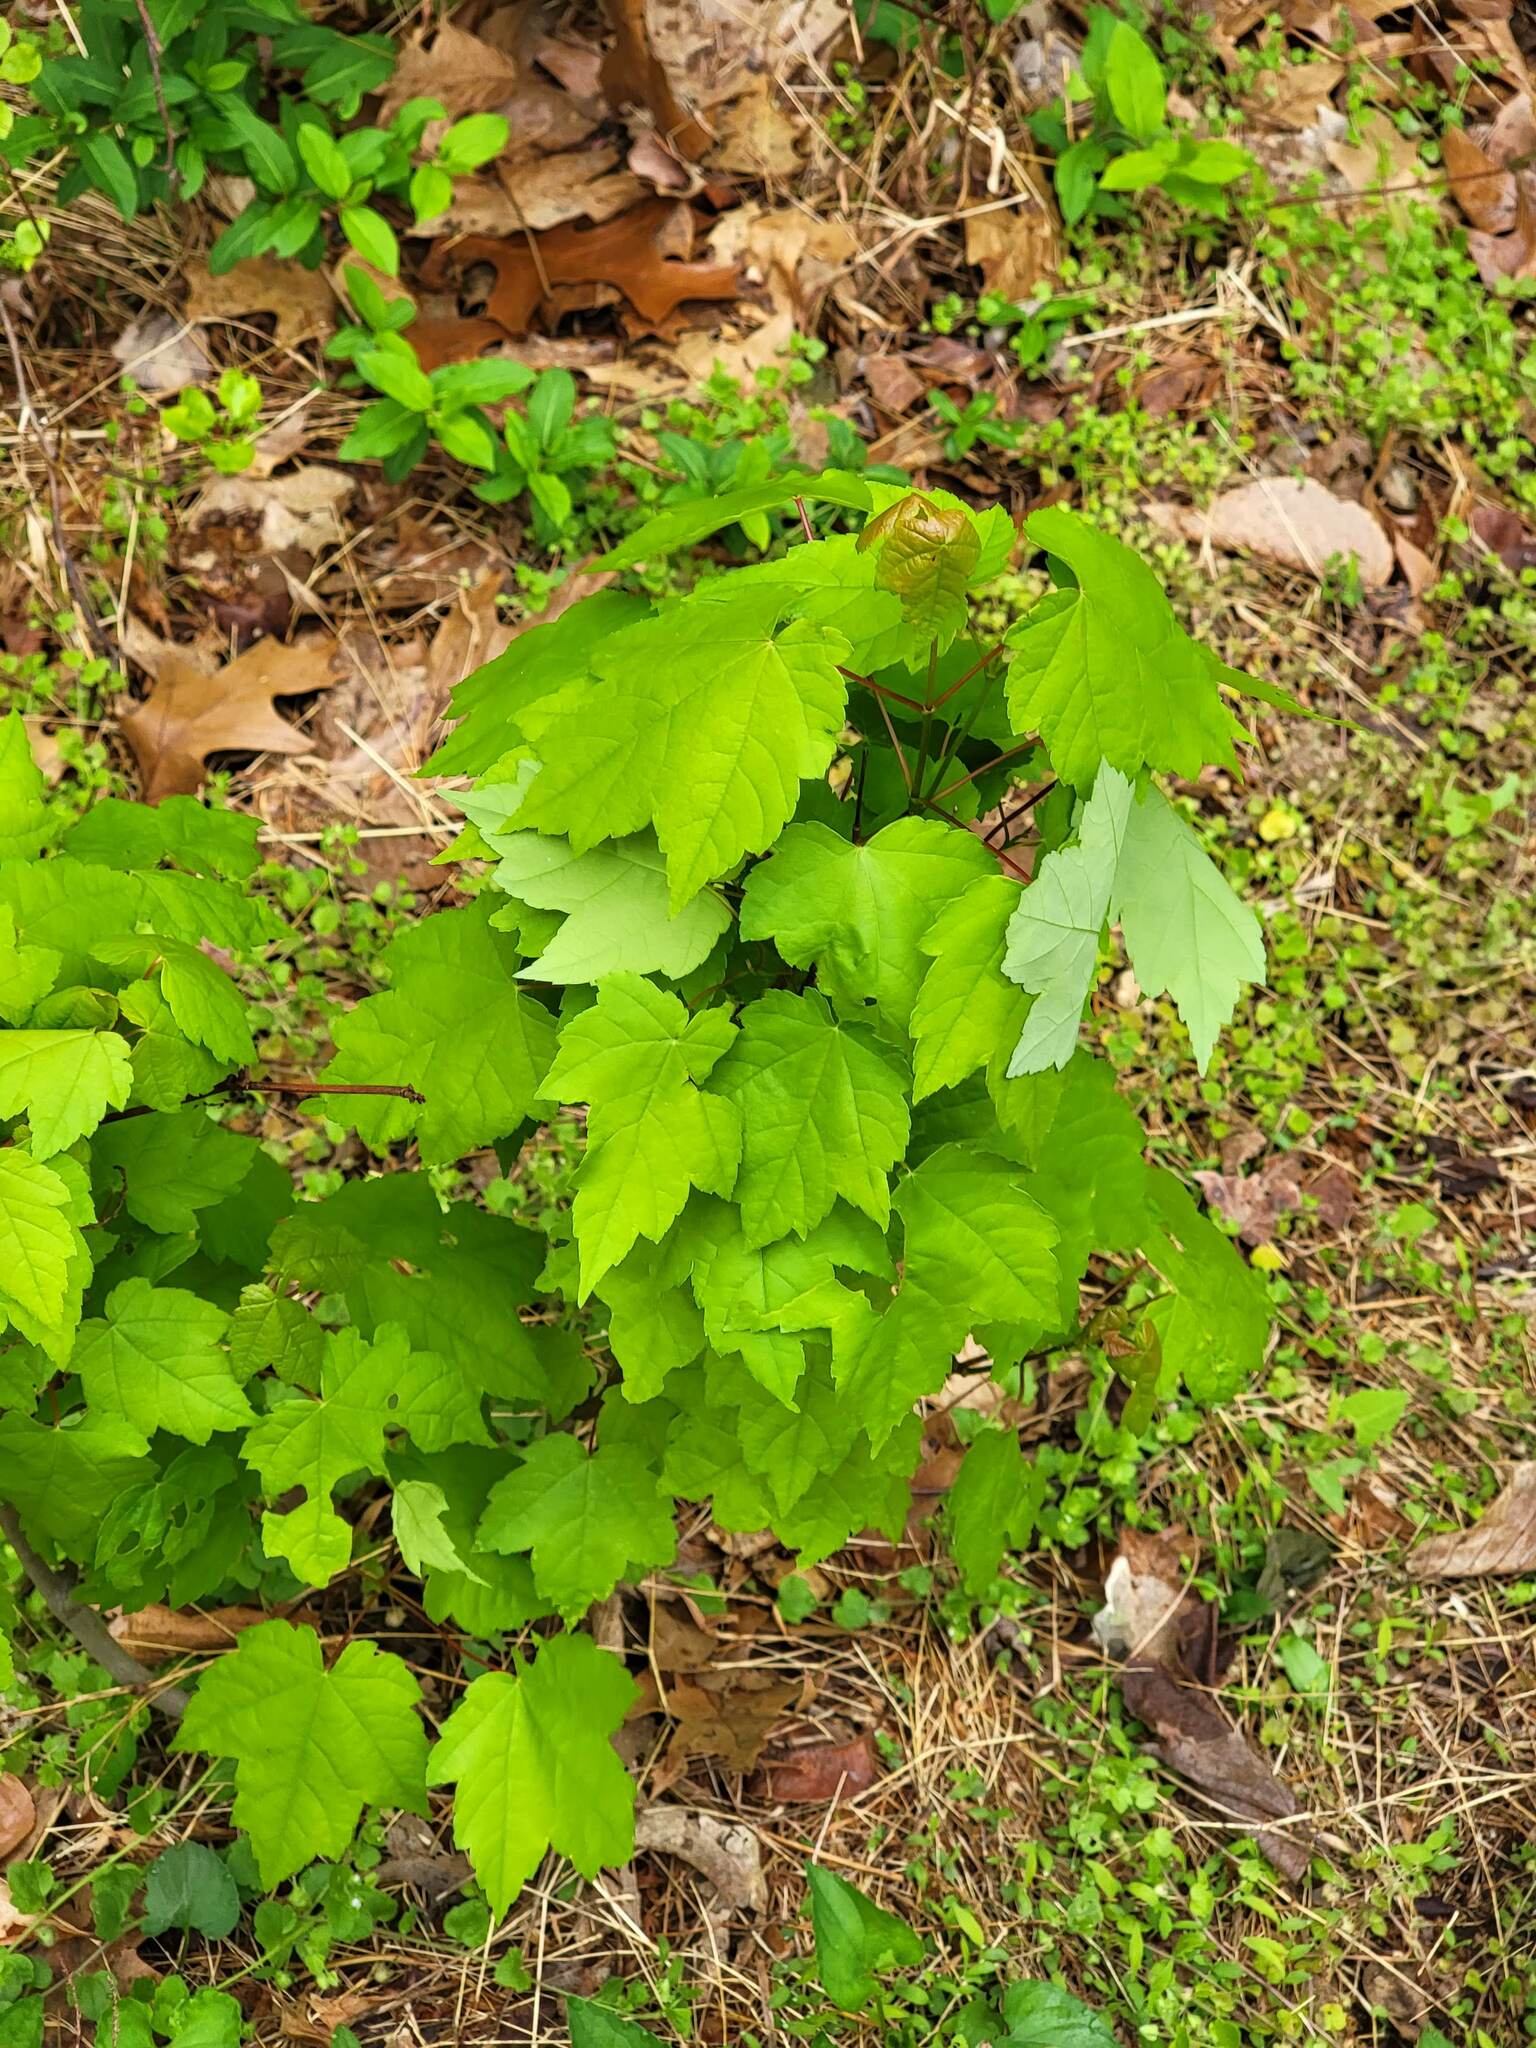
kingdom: Plantae
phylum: Tracheophyta
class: Magnoliopsida
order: Sapindales
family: Sapindaceae
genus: Acer
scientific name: Acer rubrum
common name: Red maple
